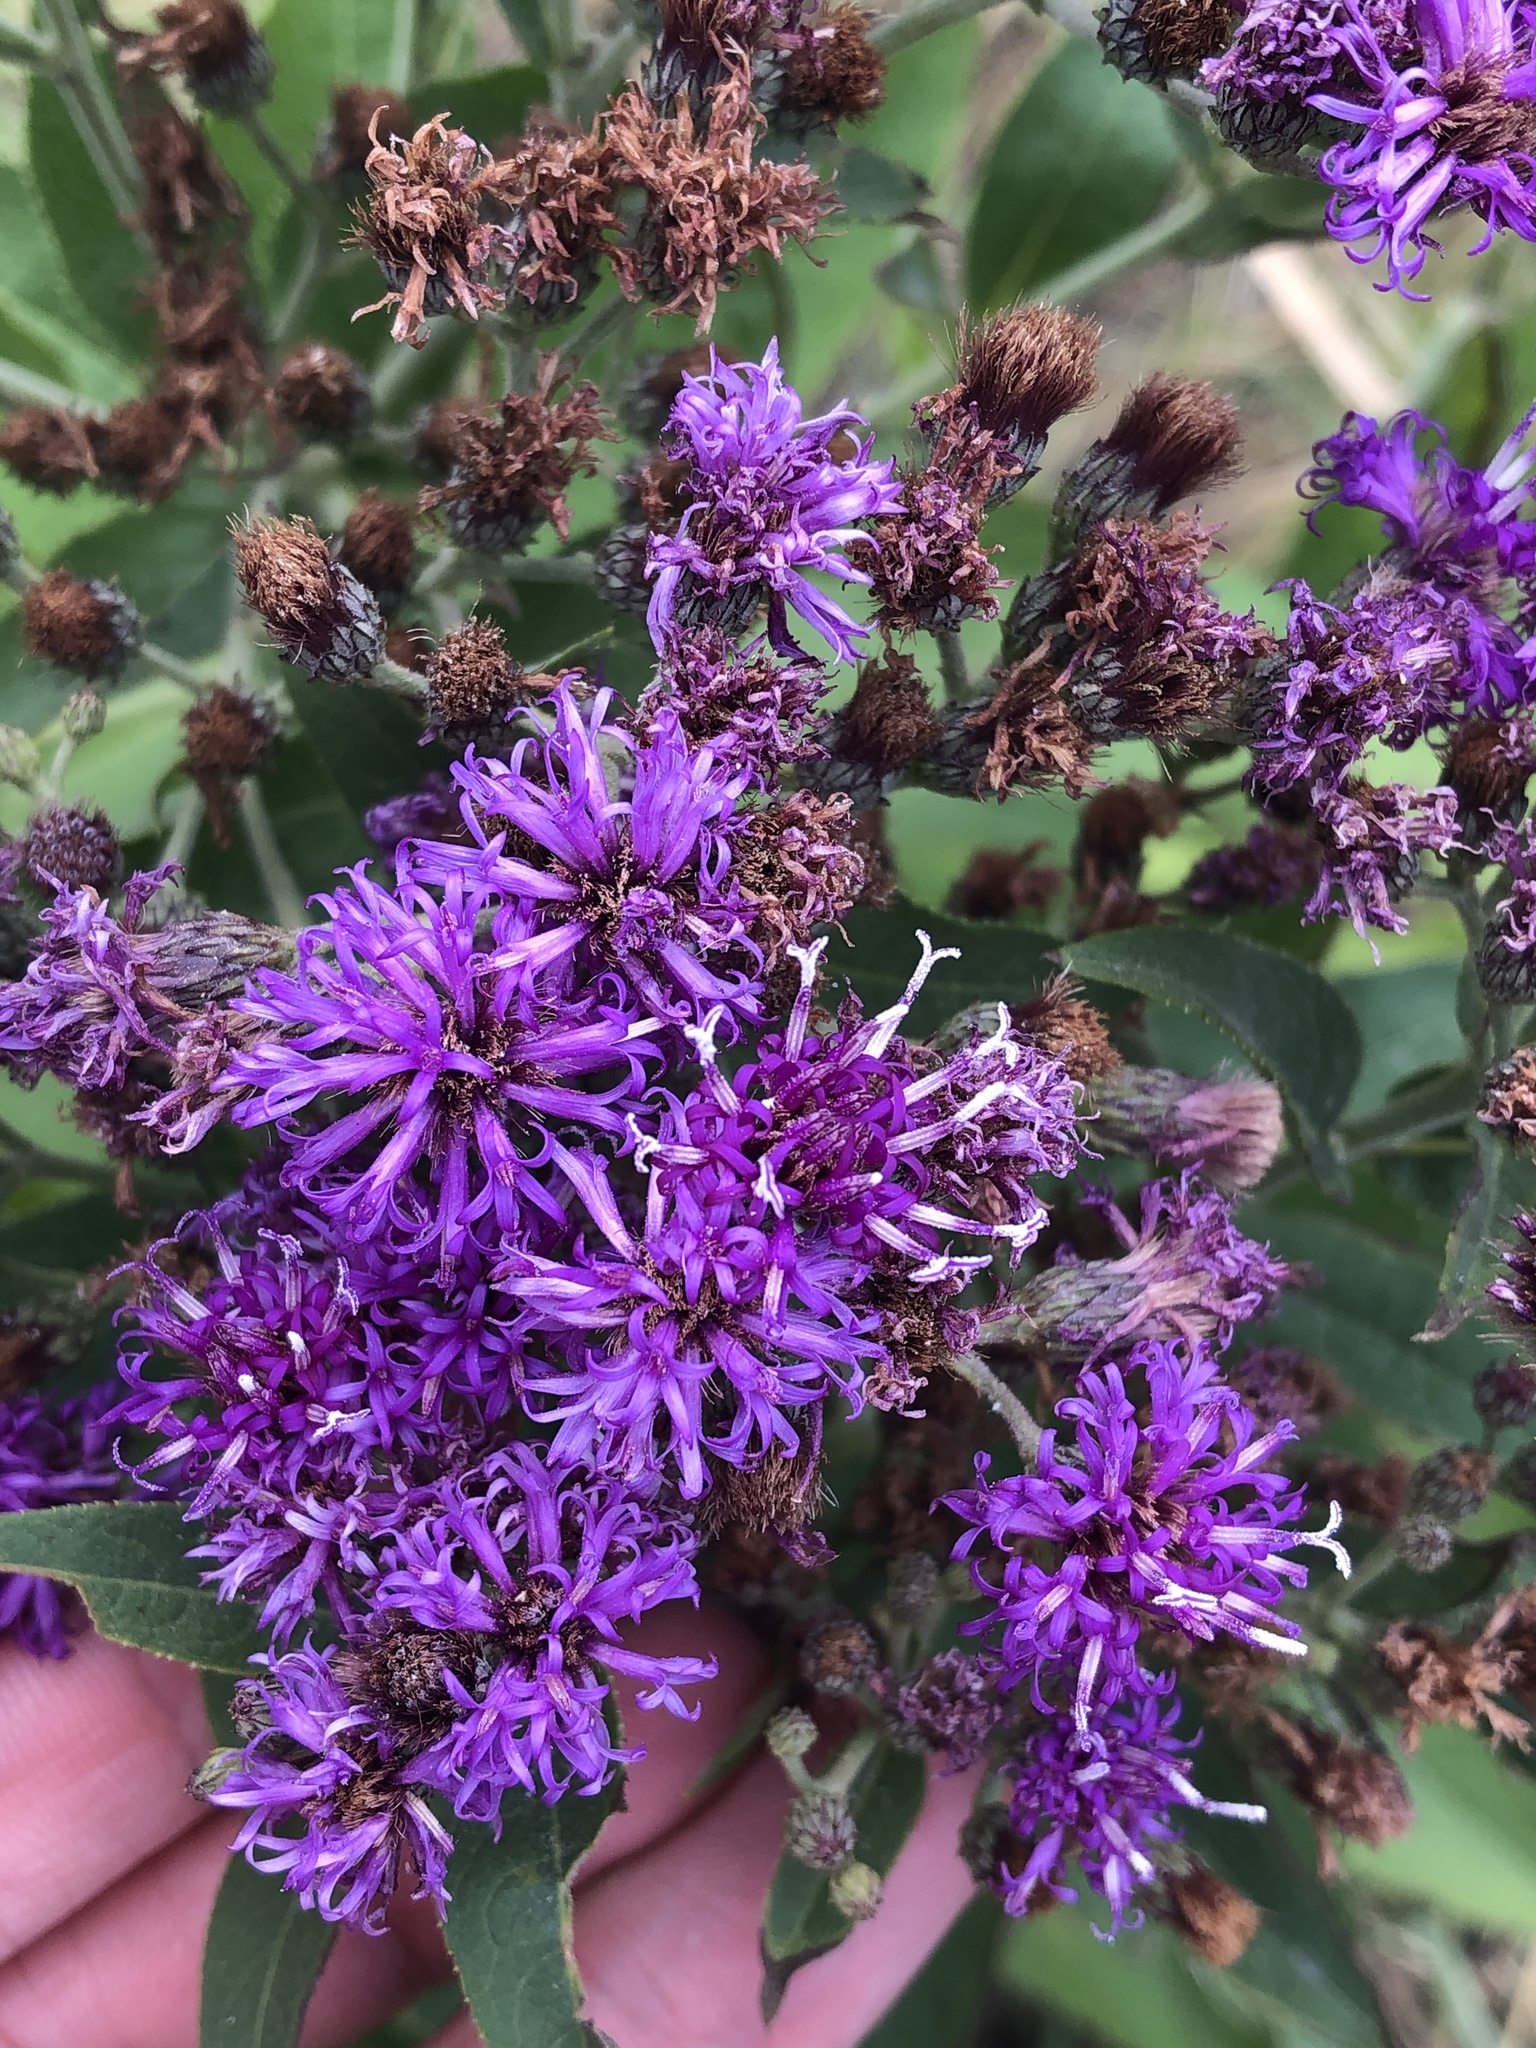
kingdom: Plantae
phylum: Tracheophyta
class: Magnoliopsida
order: Asterales
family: Asteraceae
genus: Vernonia
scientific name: Vernonia baldwinii
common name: Western ironweed
